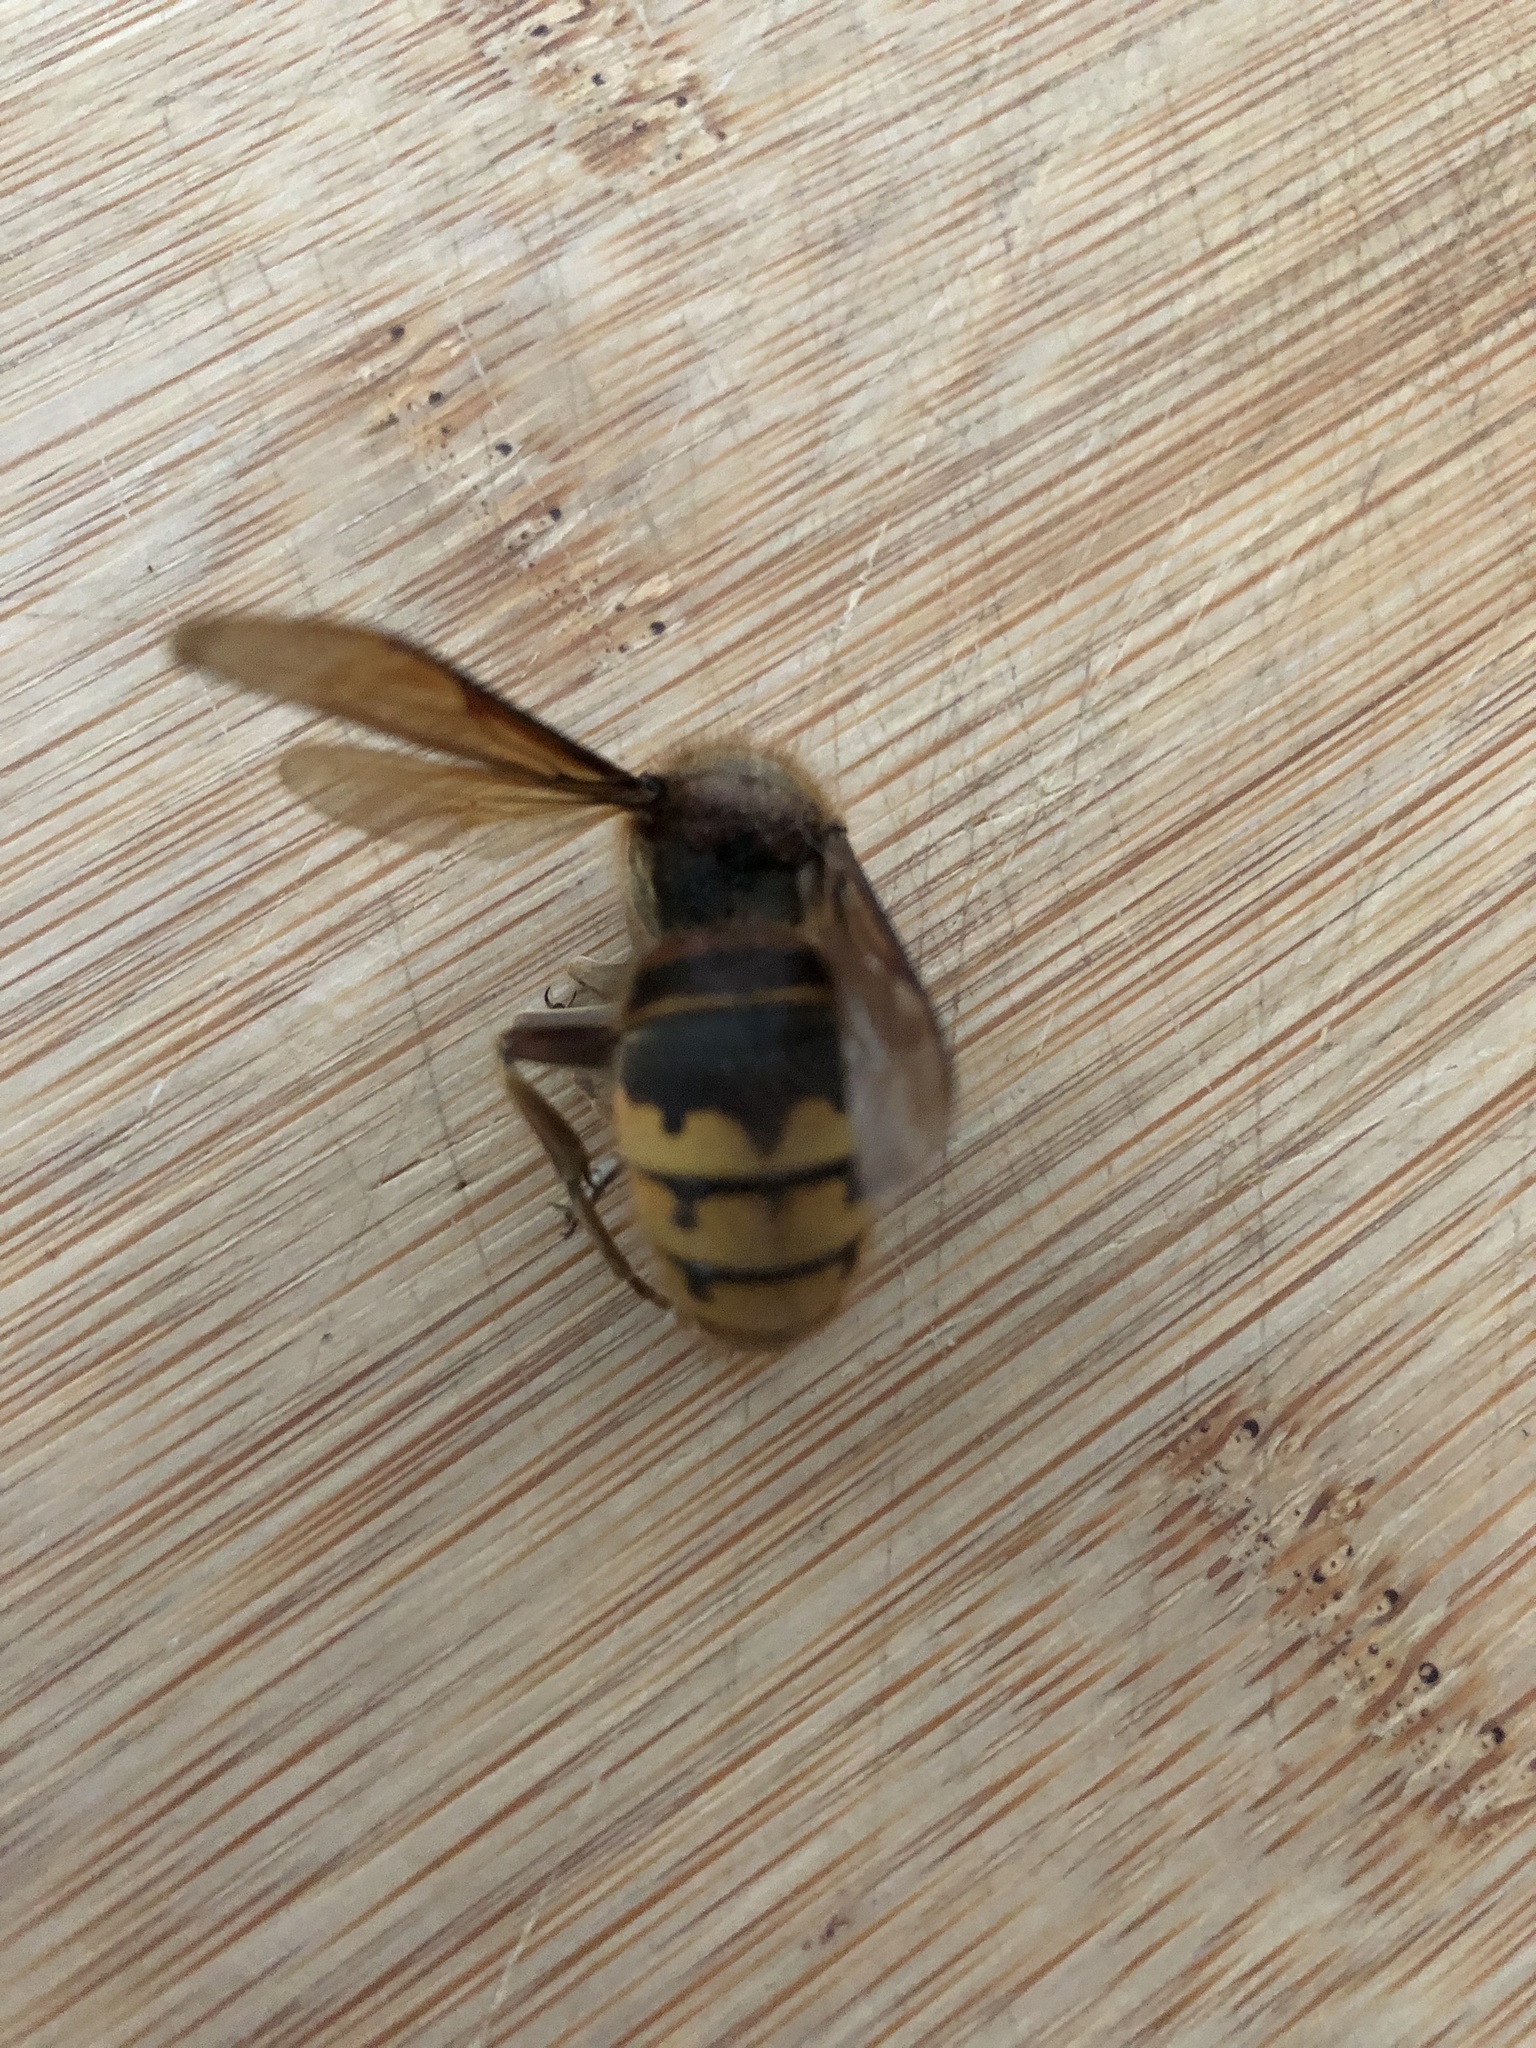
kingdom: Animalia
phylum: Arthropoda
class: Insecta
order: Hymenoptera
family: Vespidae
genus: Vespa
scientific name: Vespa crabro
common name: Hornet
